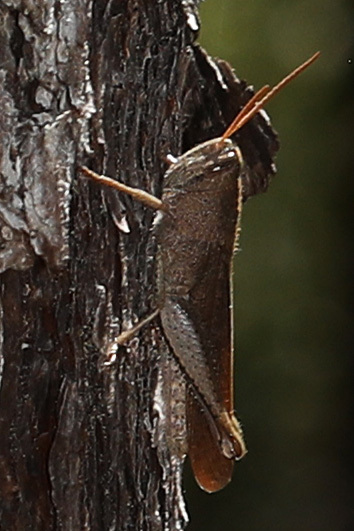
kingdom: Animalia
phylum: Arthropoda
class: Insecta
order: Orthoptera
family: Acrididae
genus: Schistocerca
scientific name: Schistocerca damnifica
